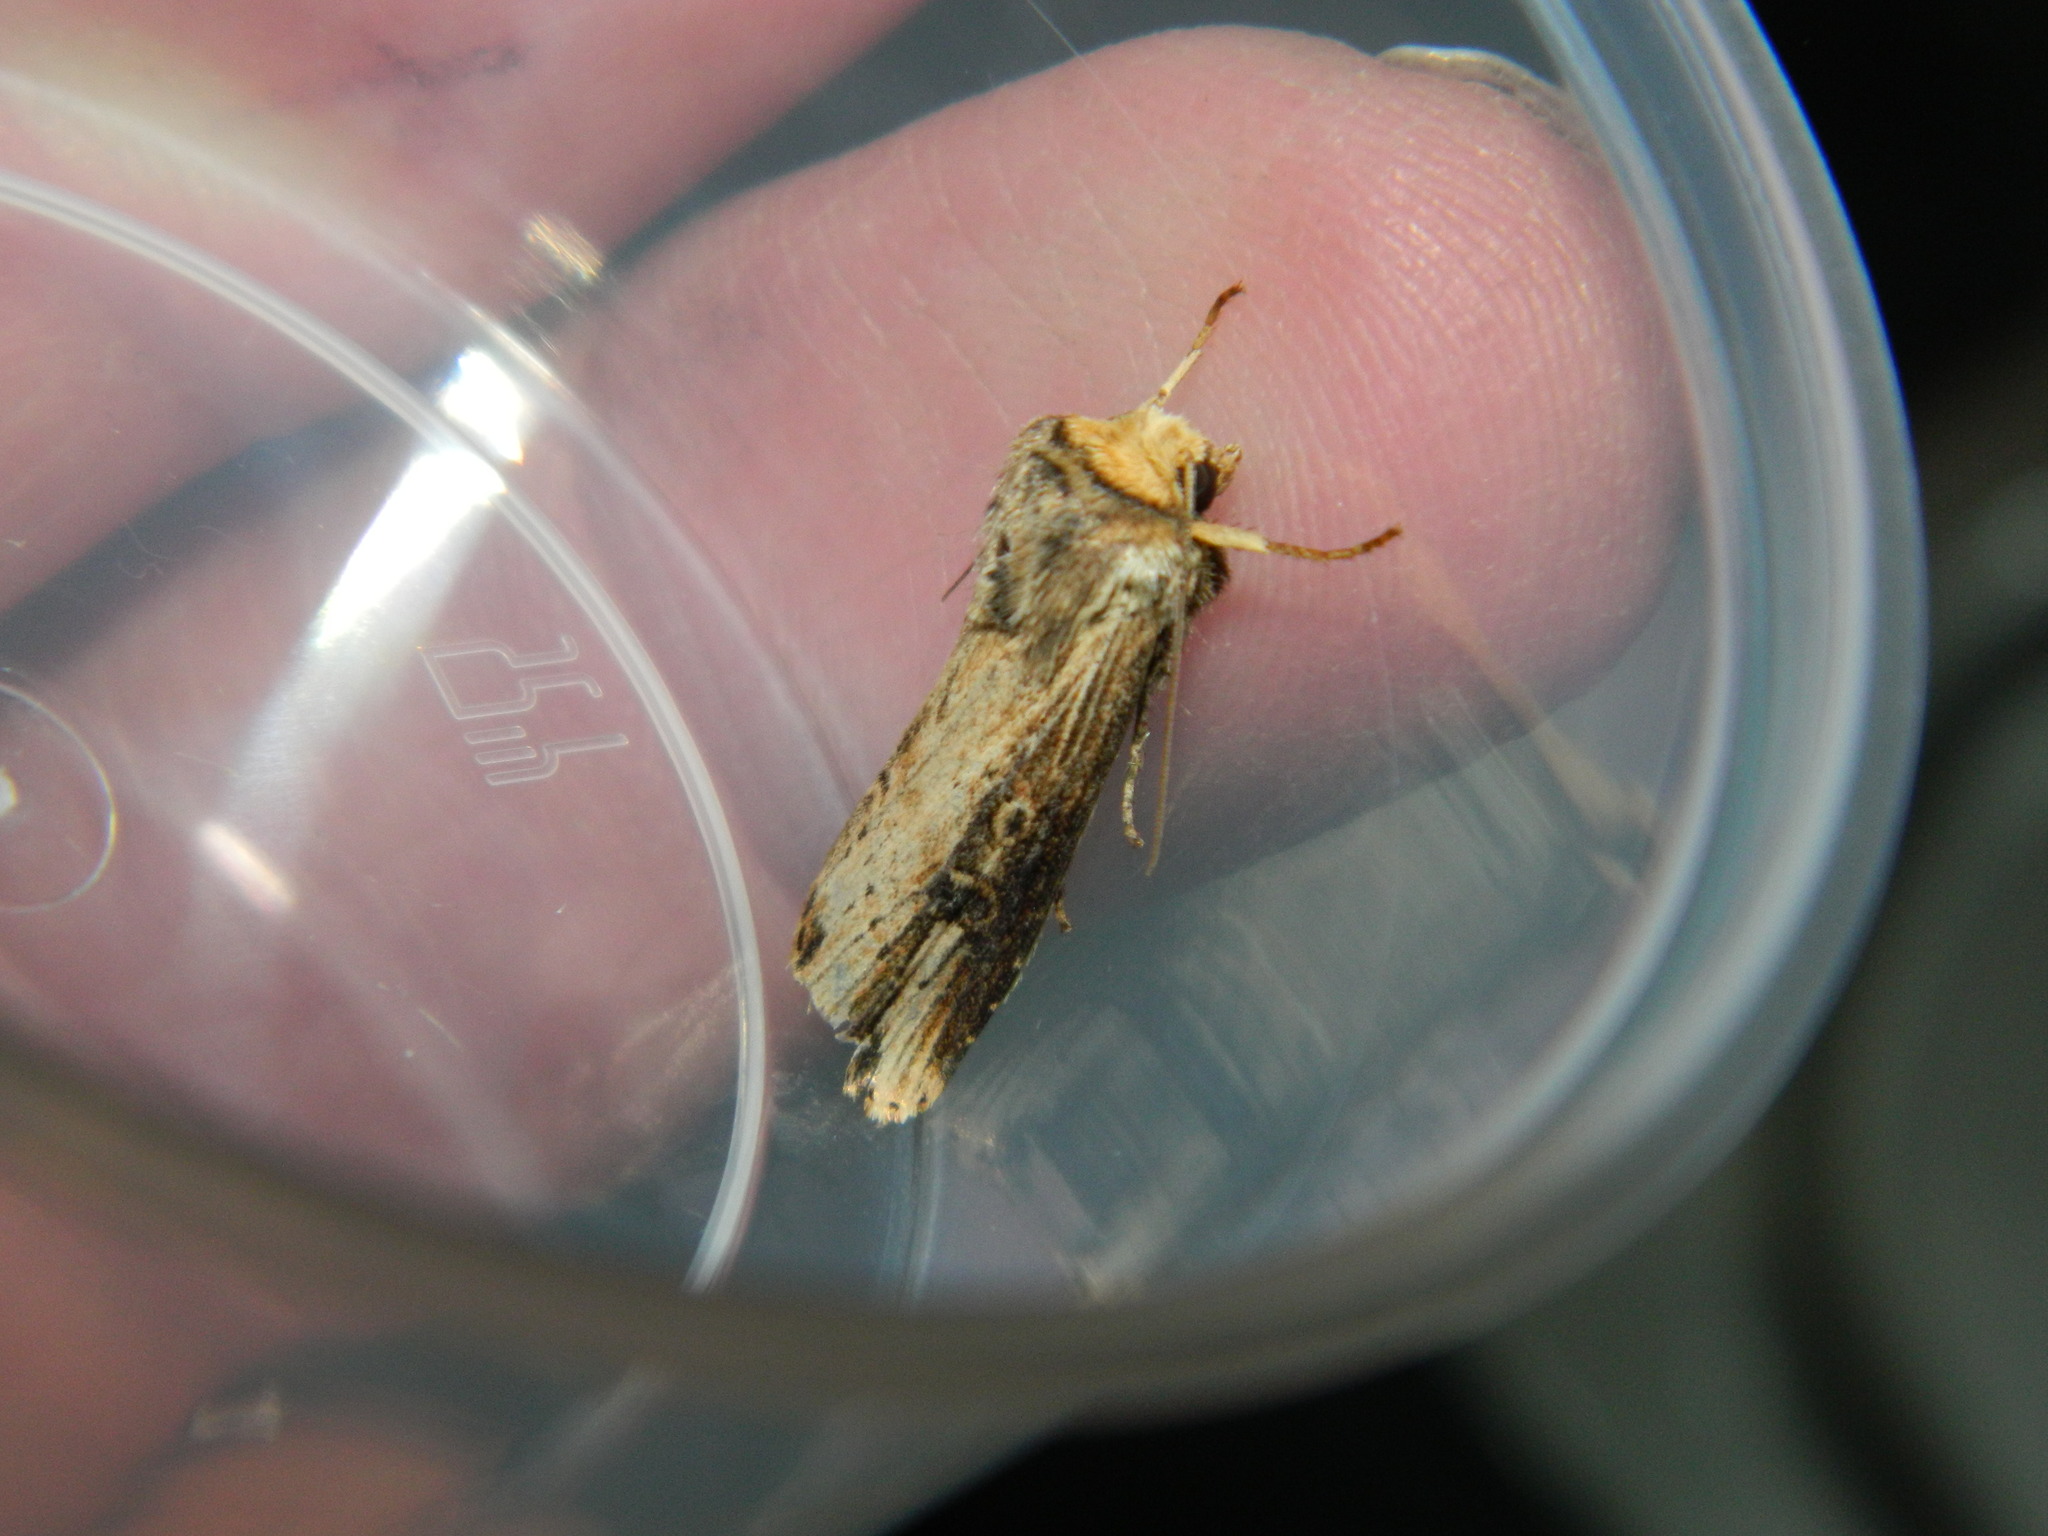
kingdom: Animalia
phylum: Arthropoda
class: Insecta
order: Lepidoptera
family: Noctuidae
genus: Axylia
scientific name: Axylia putris
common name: Flame
